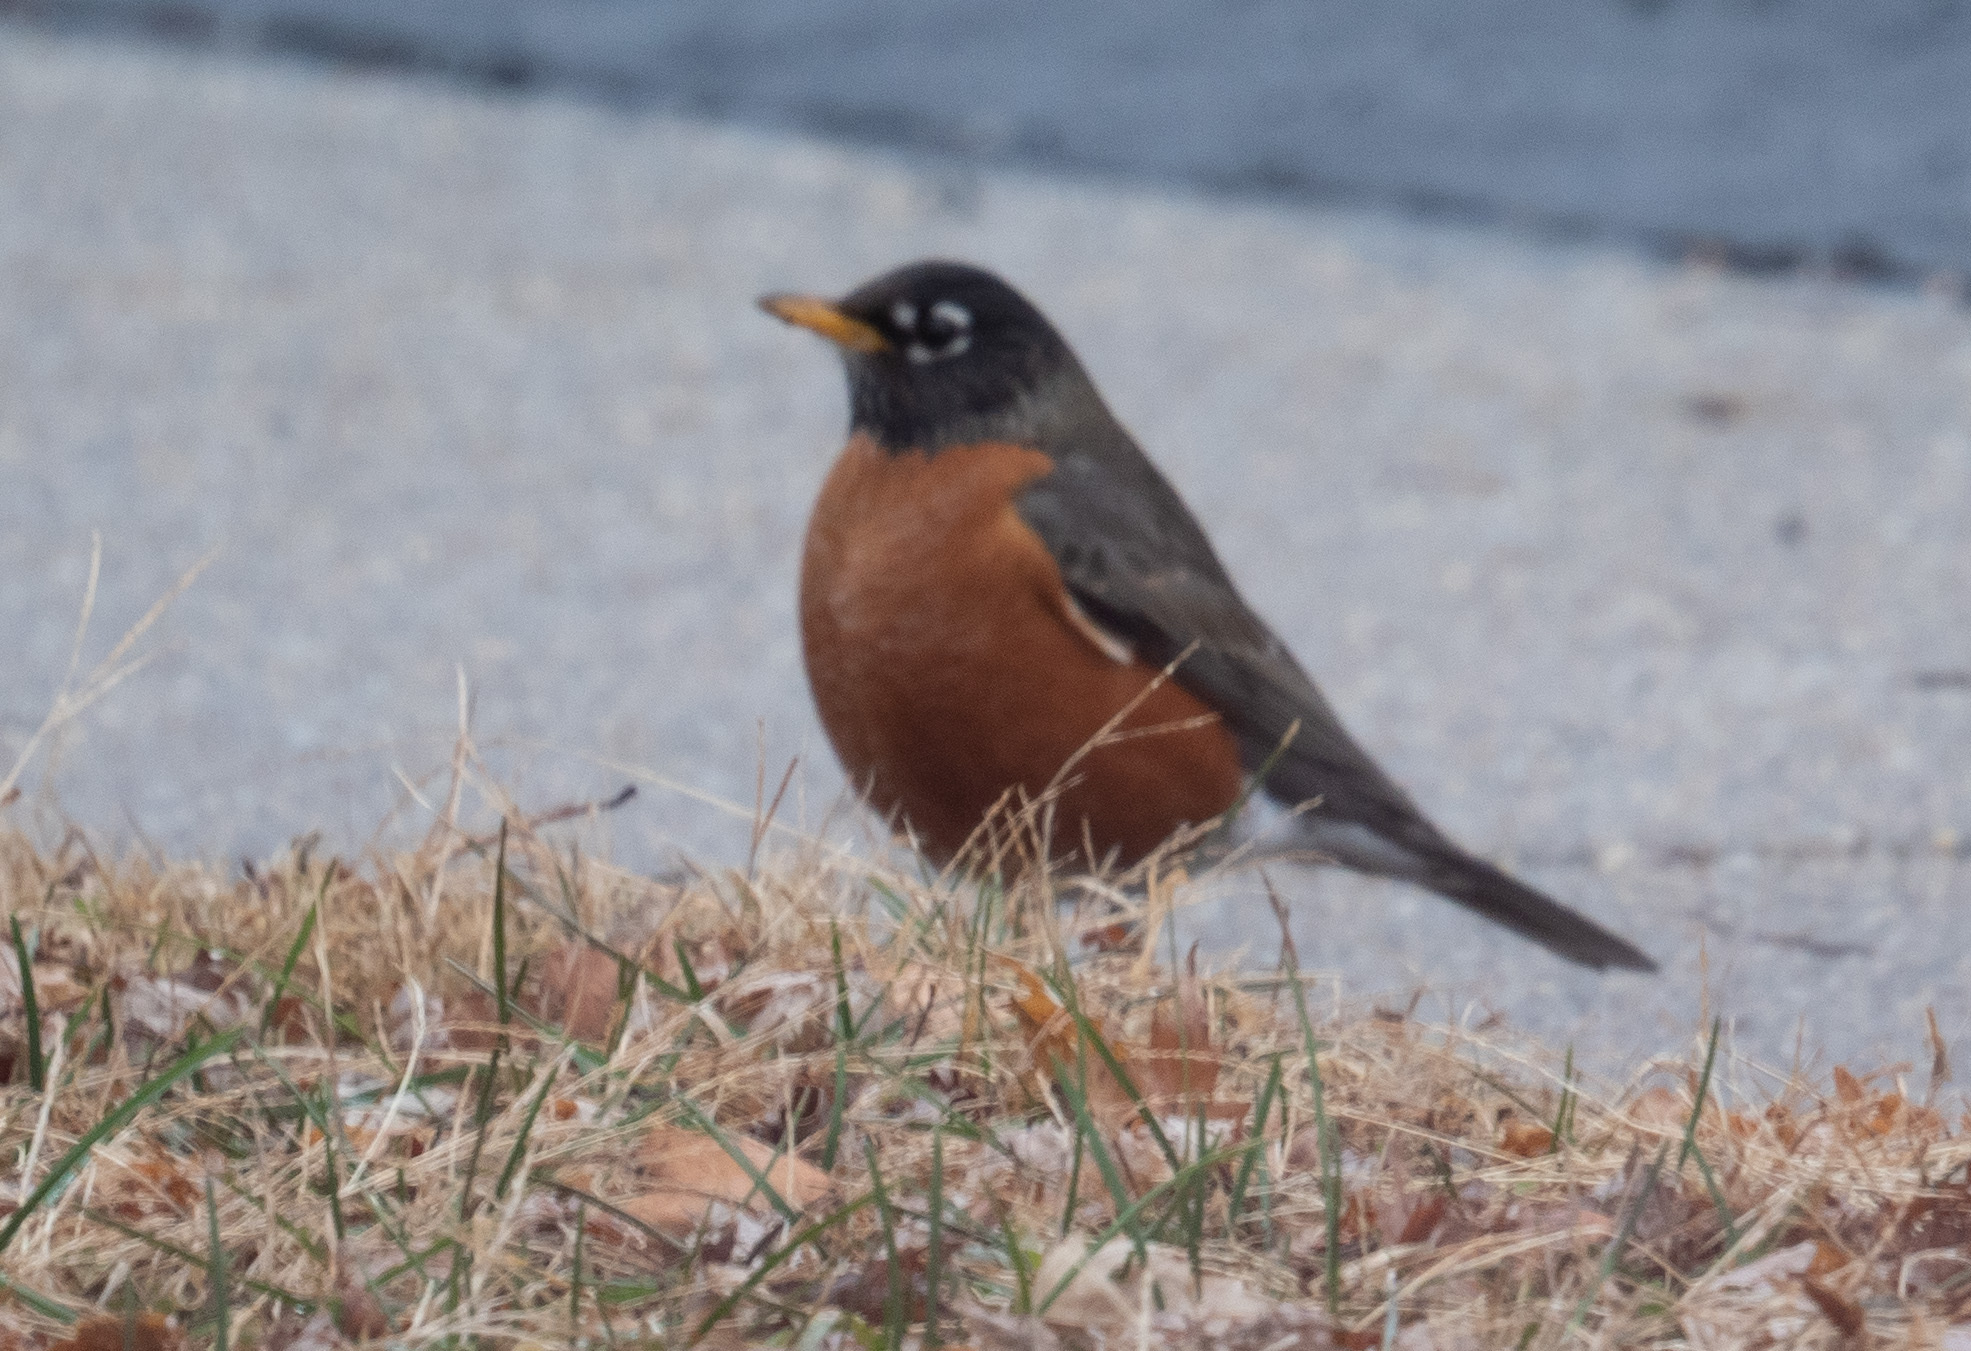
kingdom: Animalia
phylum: Chordata
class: Aves
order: Passeriformes
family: Turdidae
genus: Turdus
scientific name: Turdus migratorius
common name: American robin
